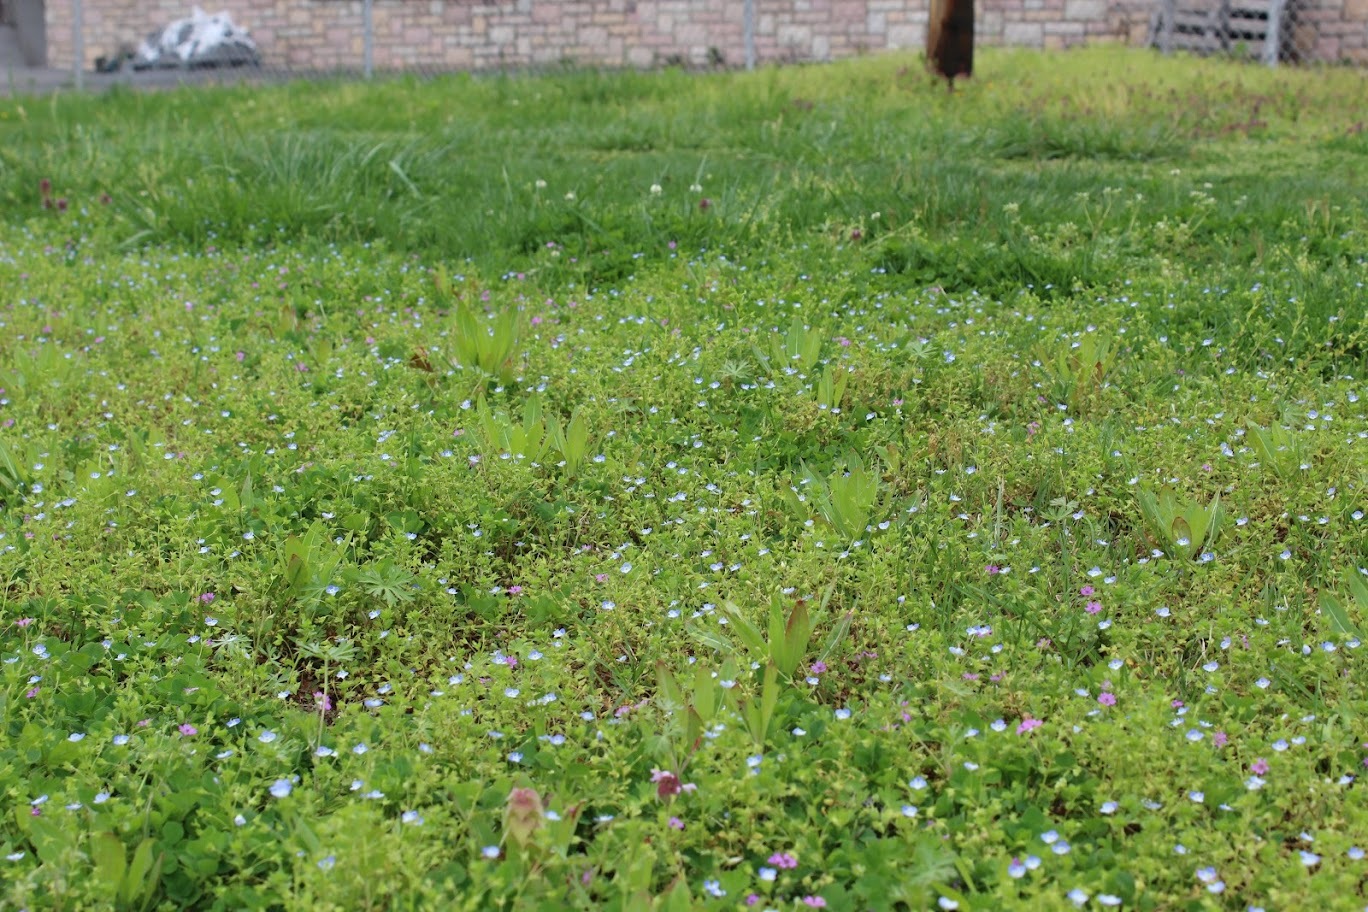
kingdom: Plantae
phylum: Tracheophyta
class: Magnoliopsida
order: Lamiales
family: Plantaginaceae
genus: Veronica
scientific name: Veronica persica
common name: Common field-speedwell
